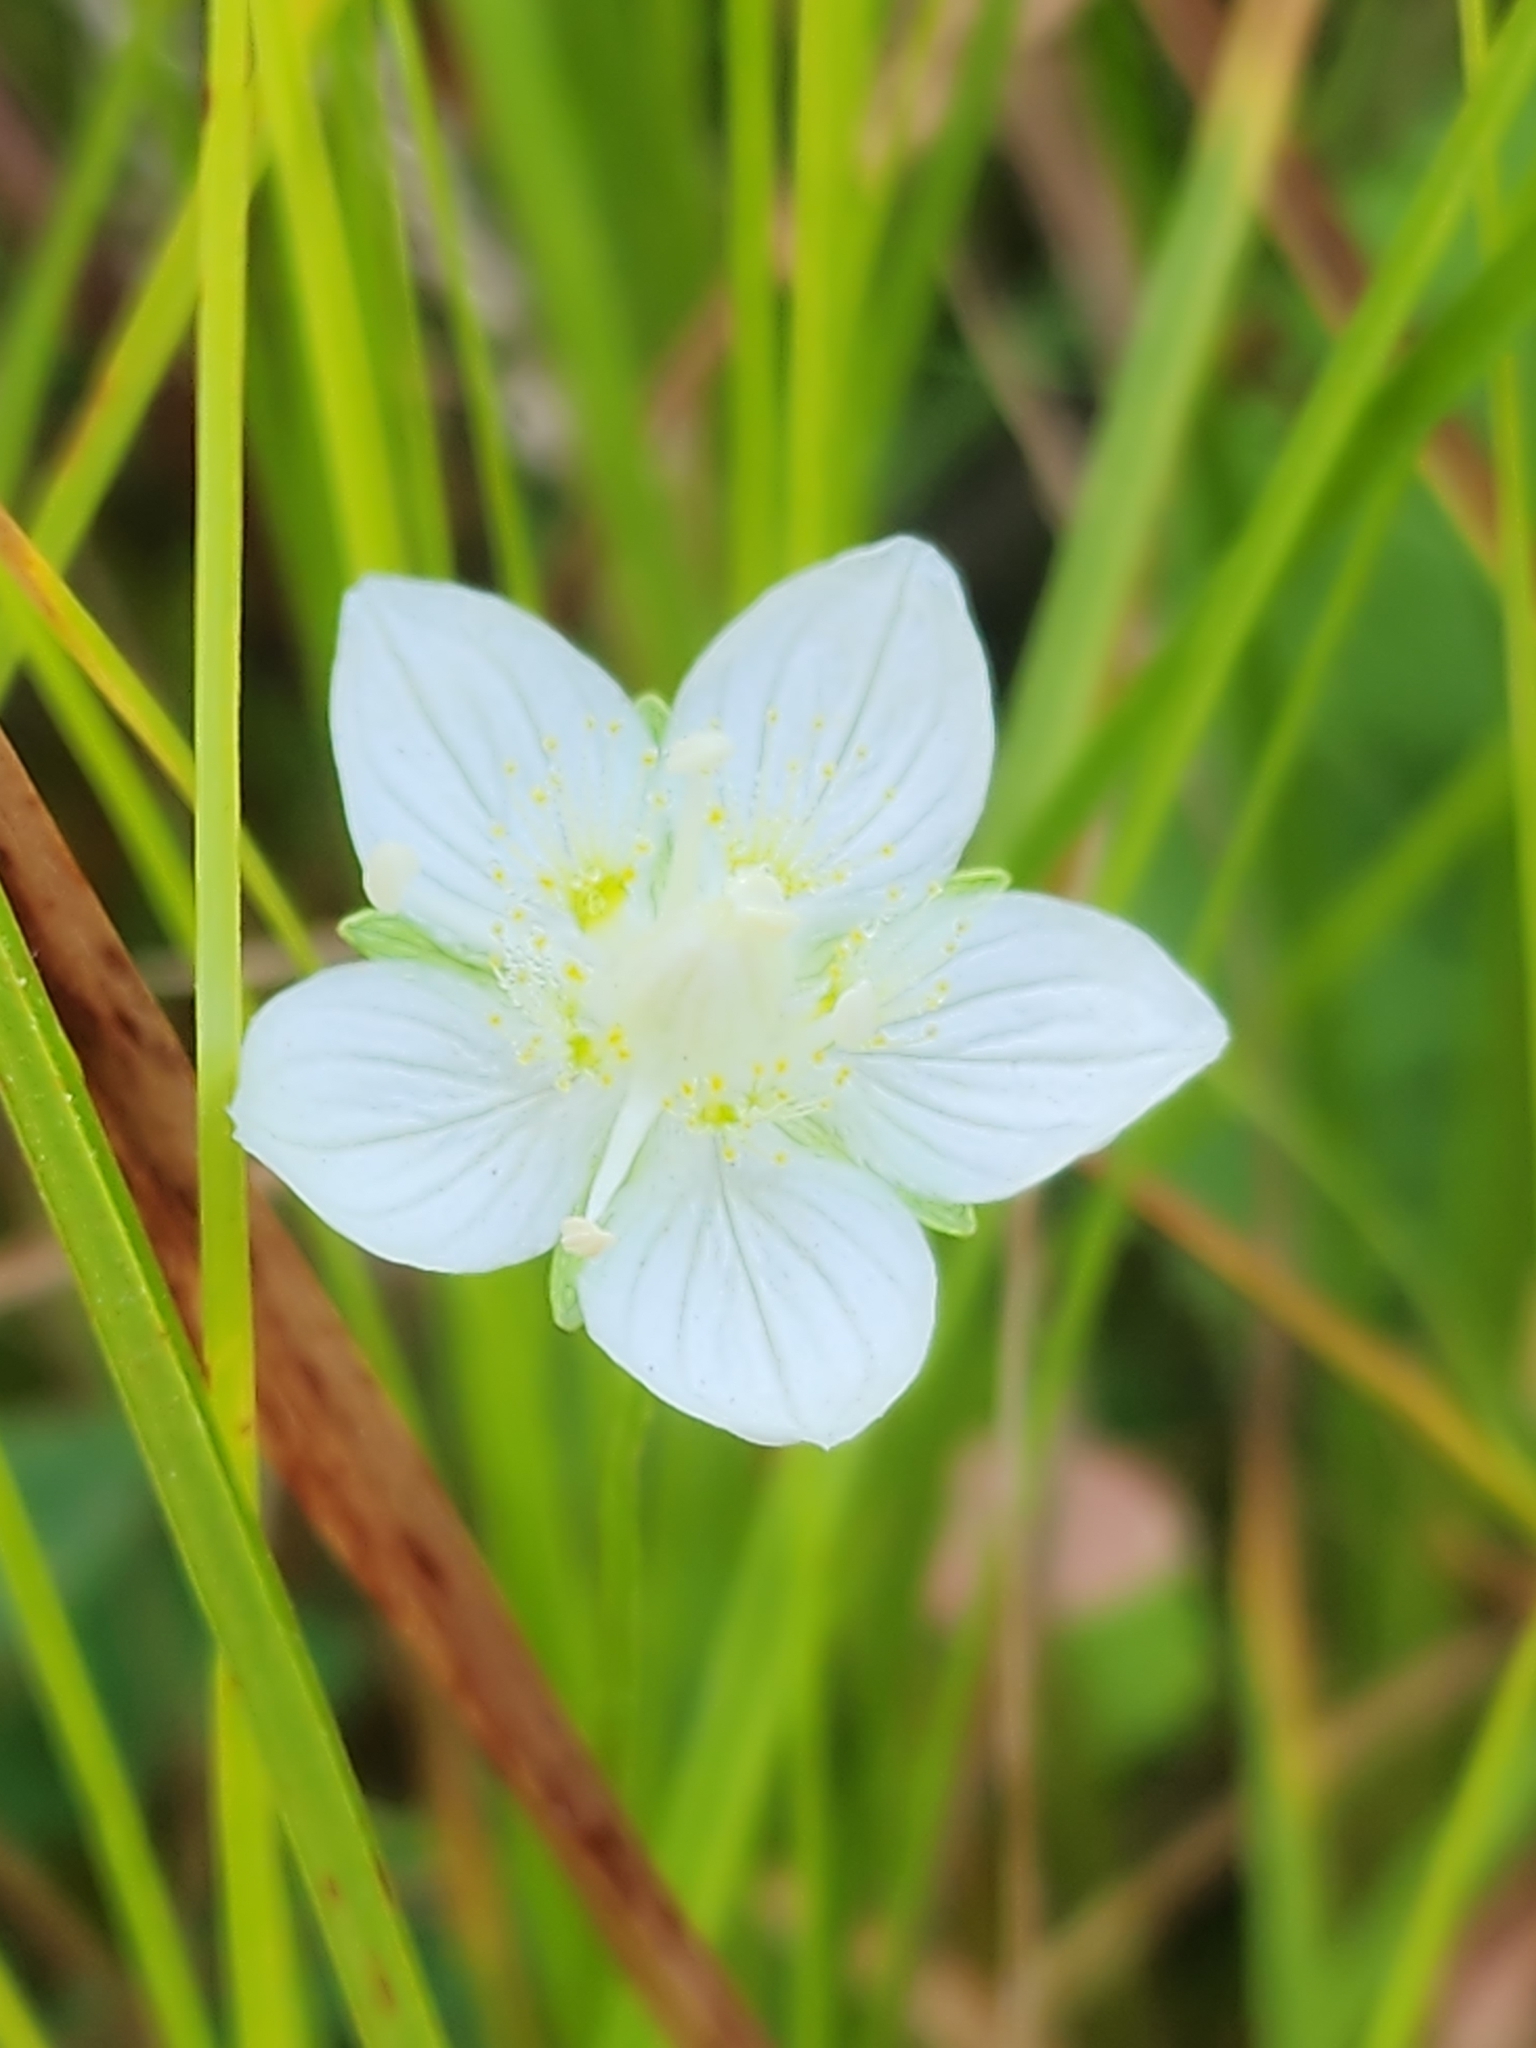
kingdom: Plantae
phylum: Tracheophyta
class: Magnoliopsida
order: Celastrales
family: Parnassiaceae
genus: Parnassia
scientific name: Parnassia palustris
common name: Grass-of-parnassus
